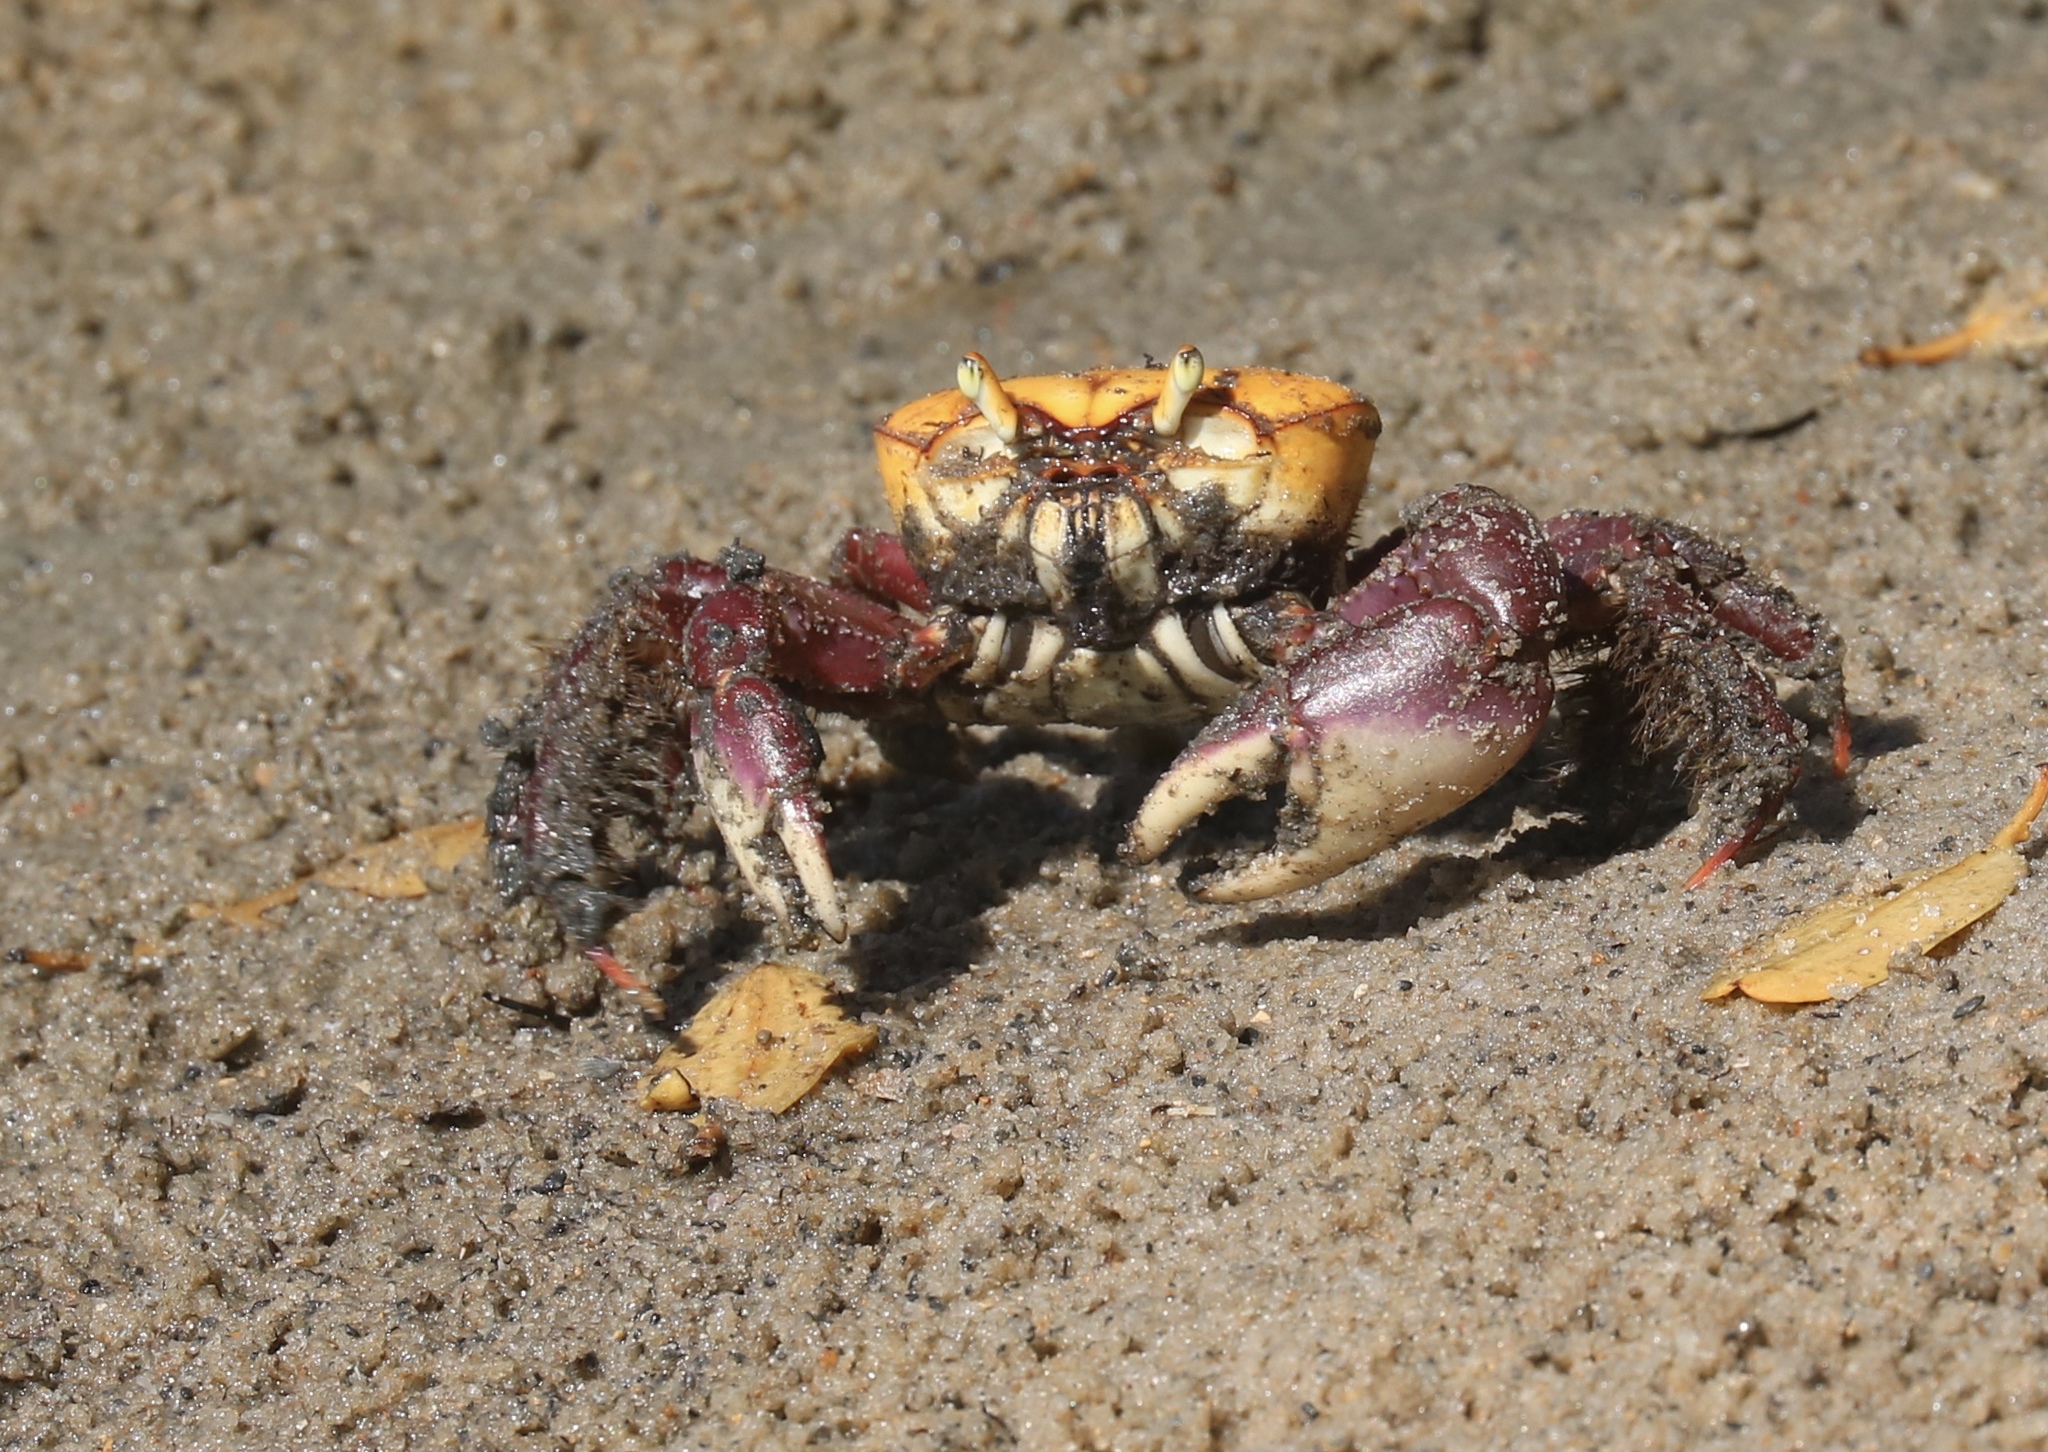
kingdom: Animalia
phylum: Arthropoda
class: Malacostraca
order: Decapoda
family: Ocypodidae
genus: Ucides
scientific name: Ucides cordatus
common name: Swamp ghost crab
